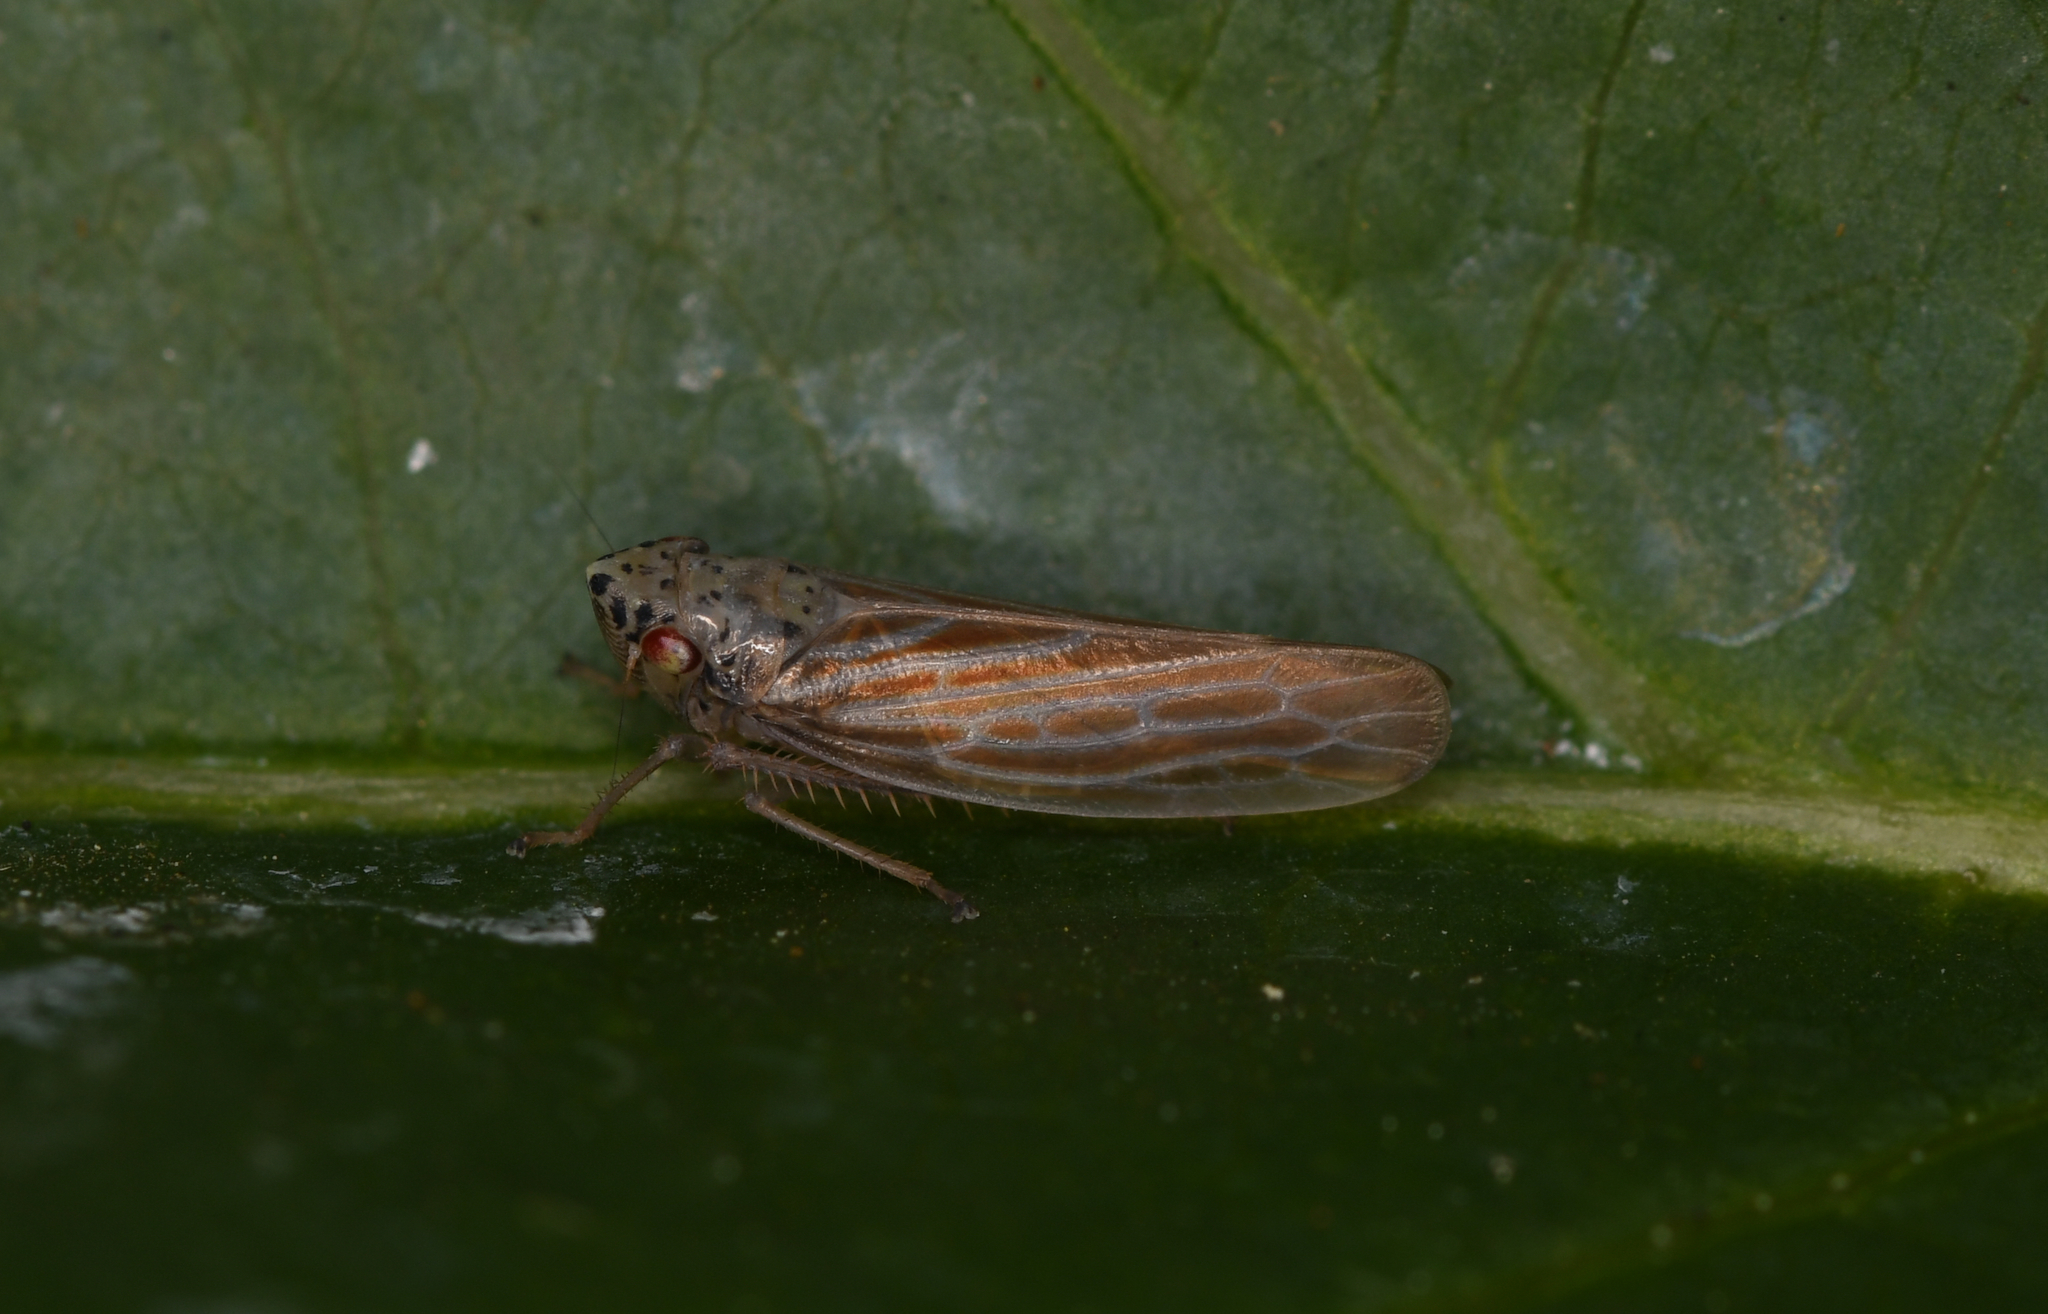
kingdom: Animalia
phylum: Arthropoda
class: Insecta
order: Hemiptera
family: Cicadellidae
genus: Pagaronia
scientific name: Pagaronia triunata
